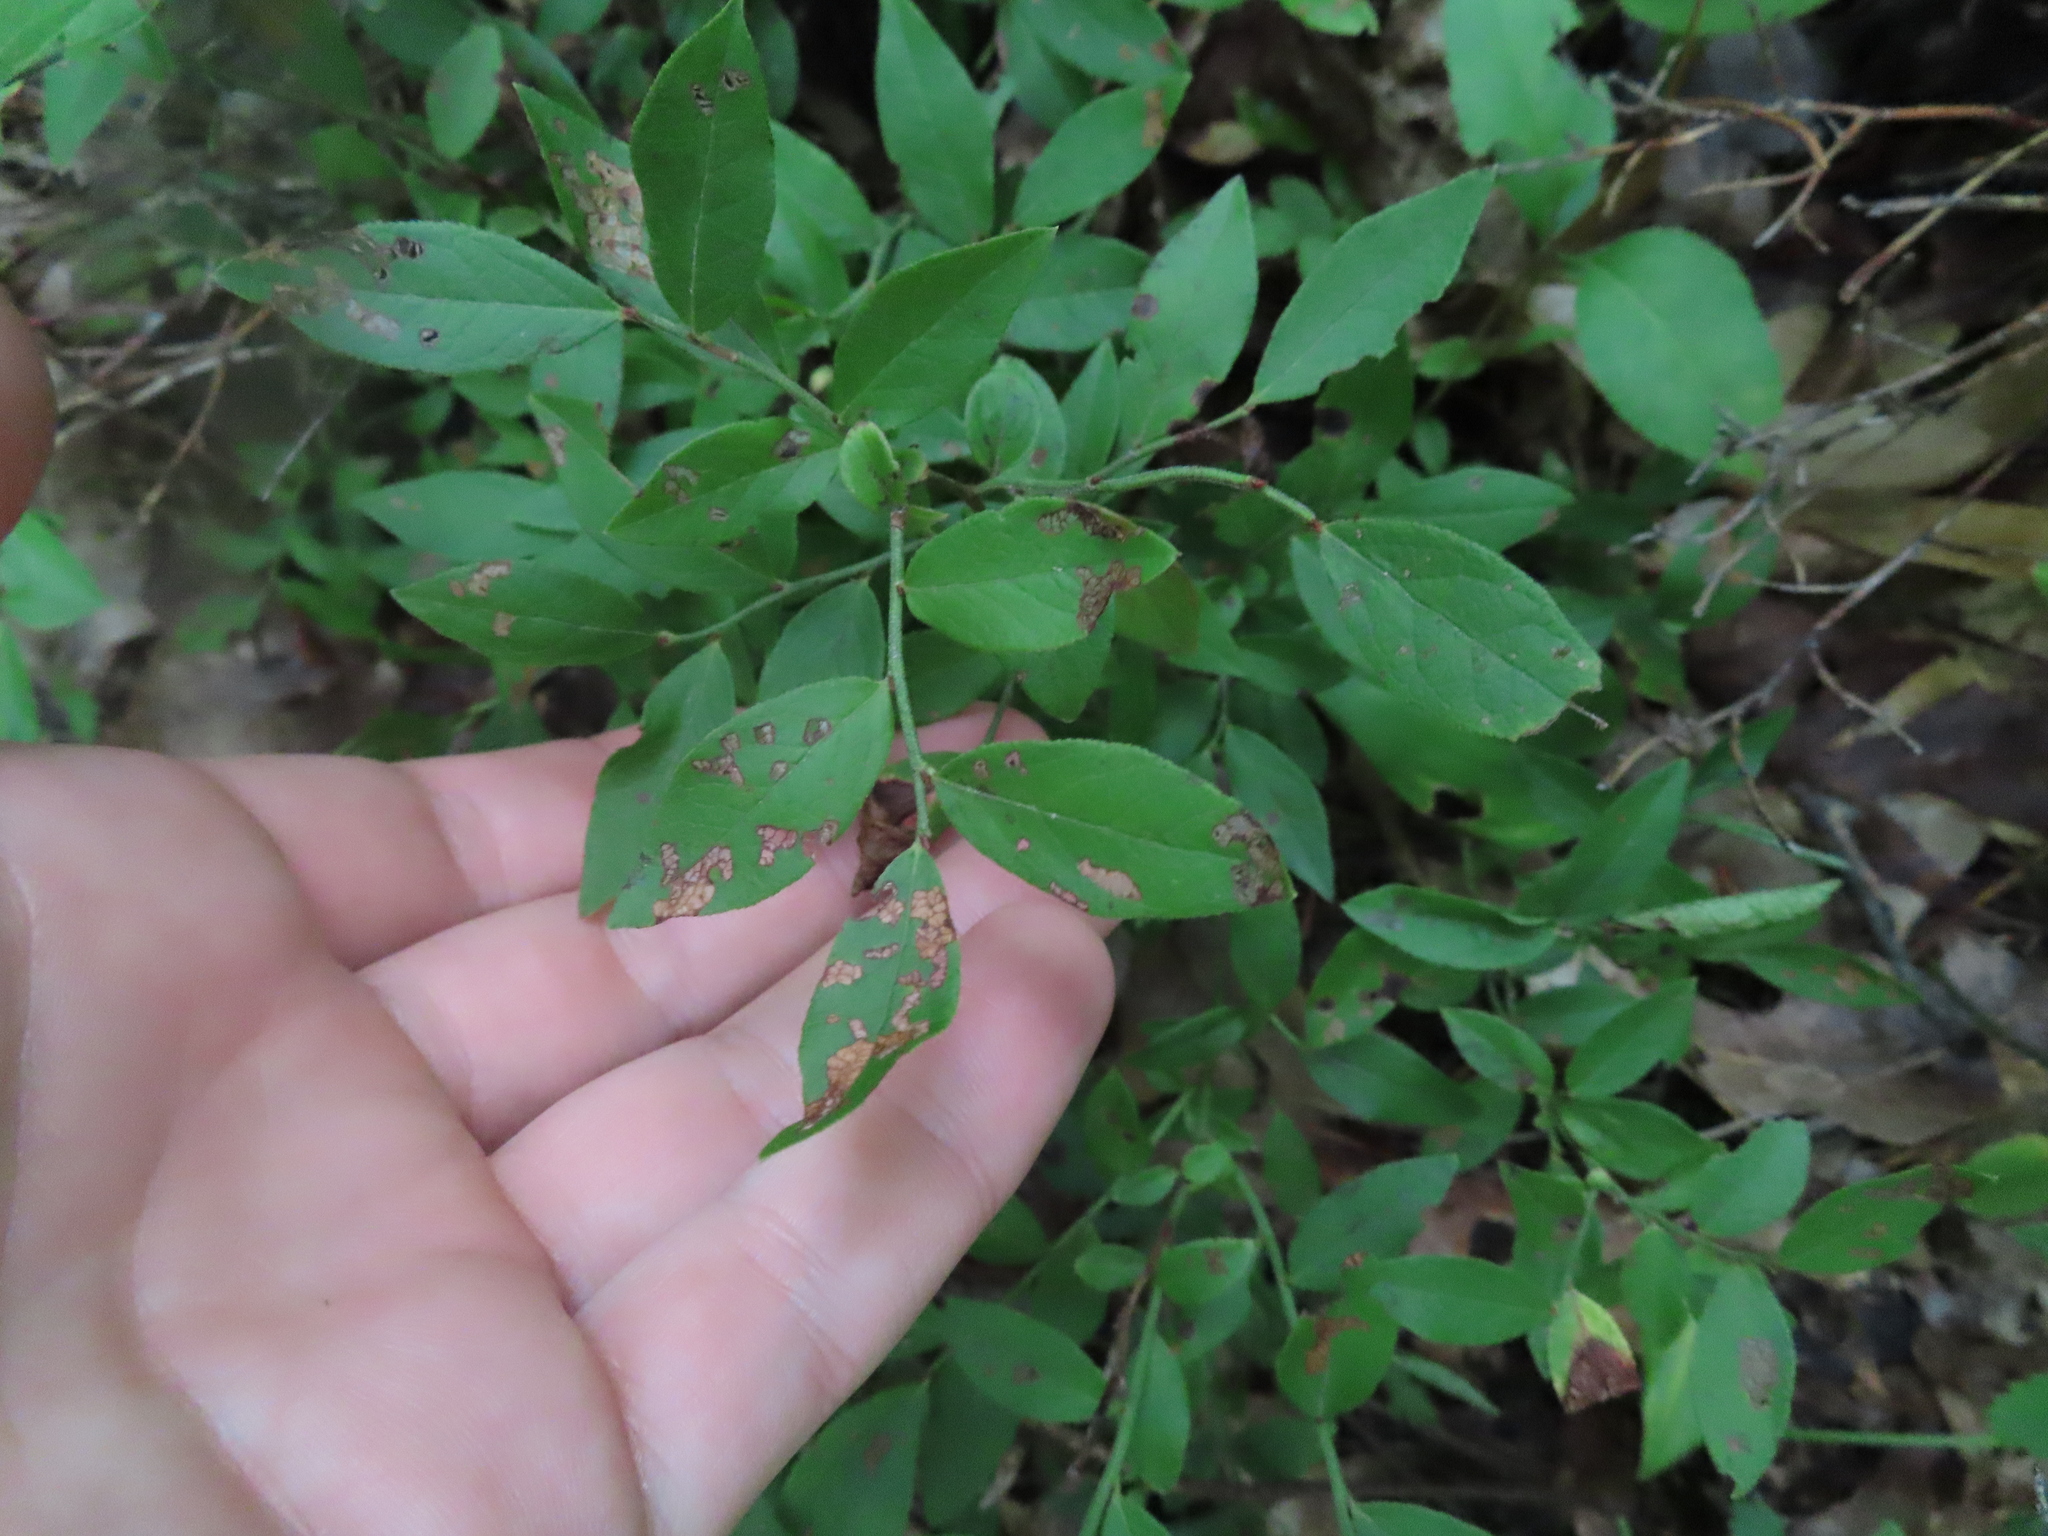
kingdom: Plantae
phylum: Tracheophyta
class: Magnoliopsida
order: Ericales
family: Ericaceae
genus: Vaccinium
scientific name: Vaccinium myrtilloides
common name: Canada blueberry
